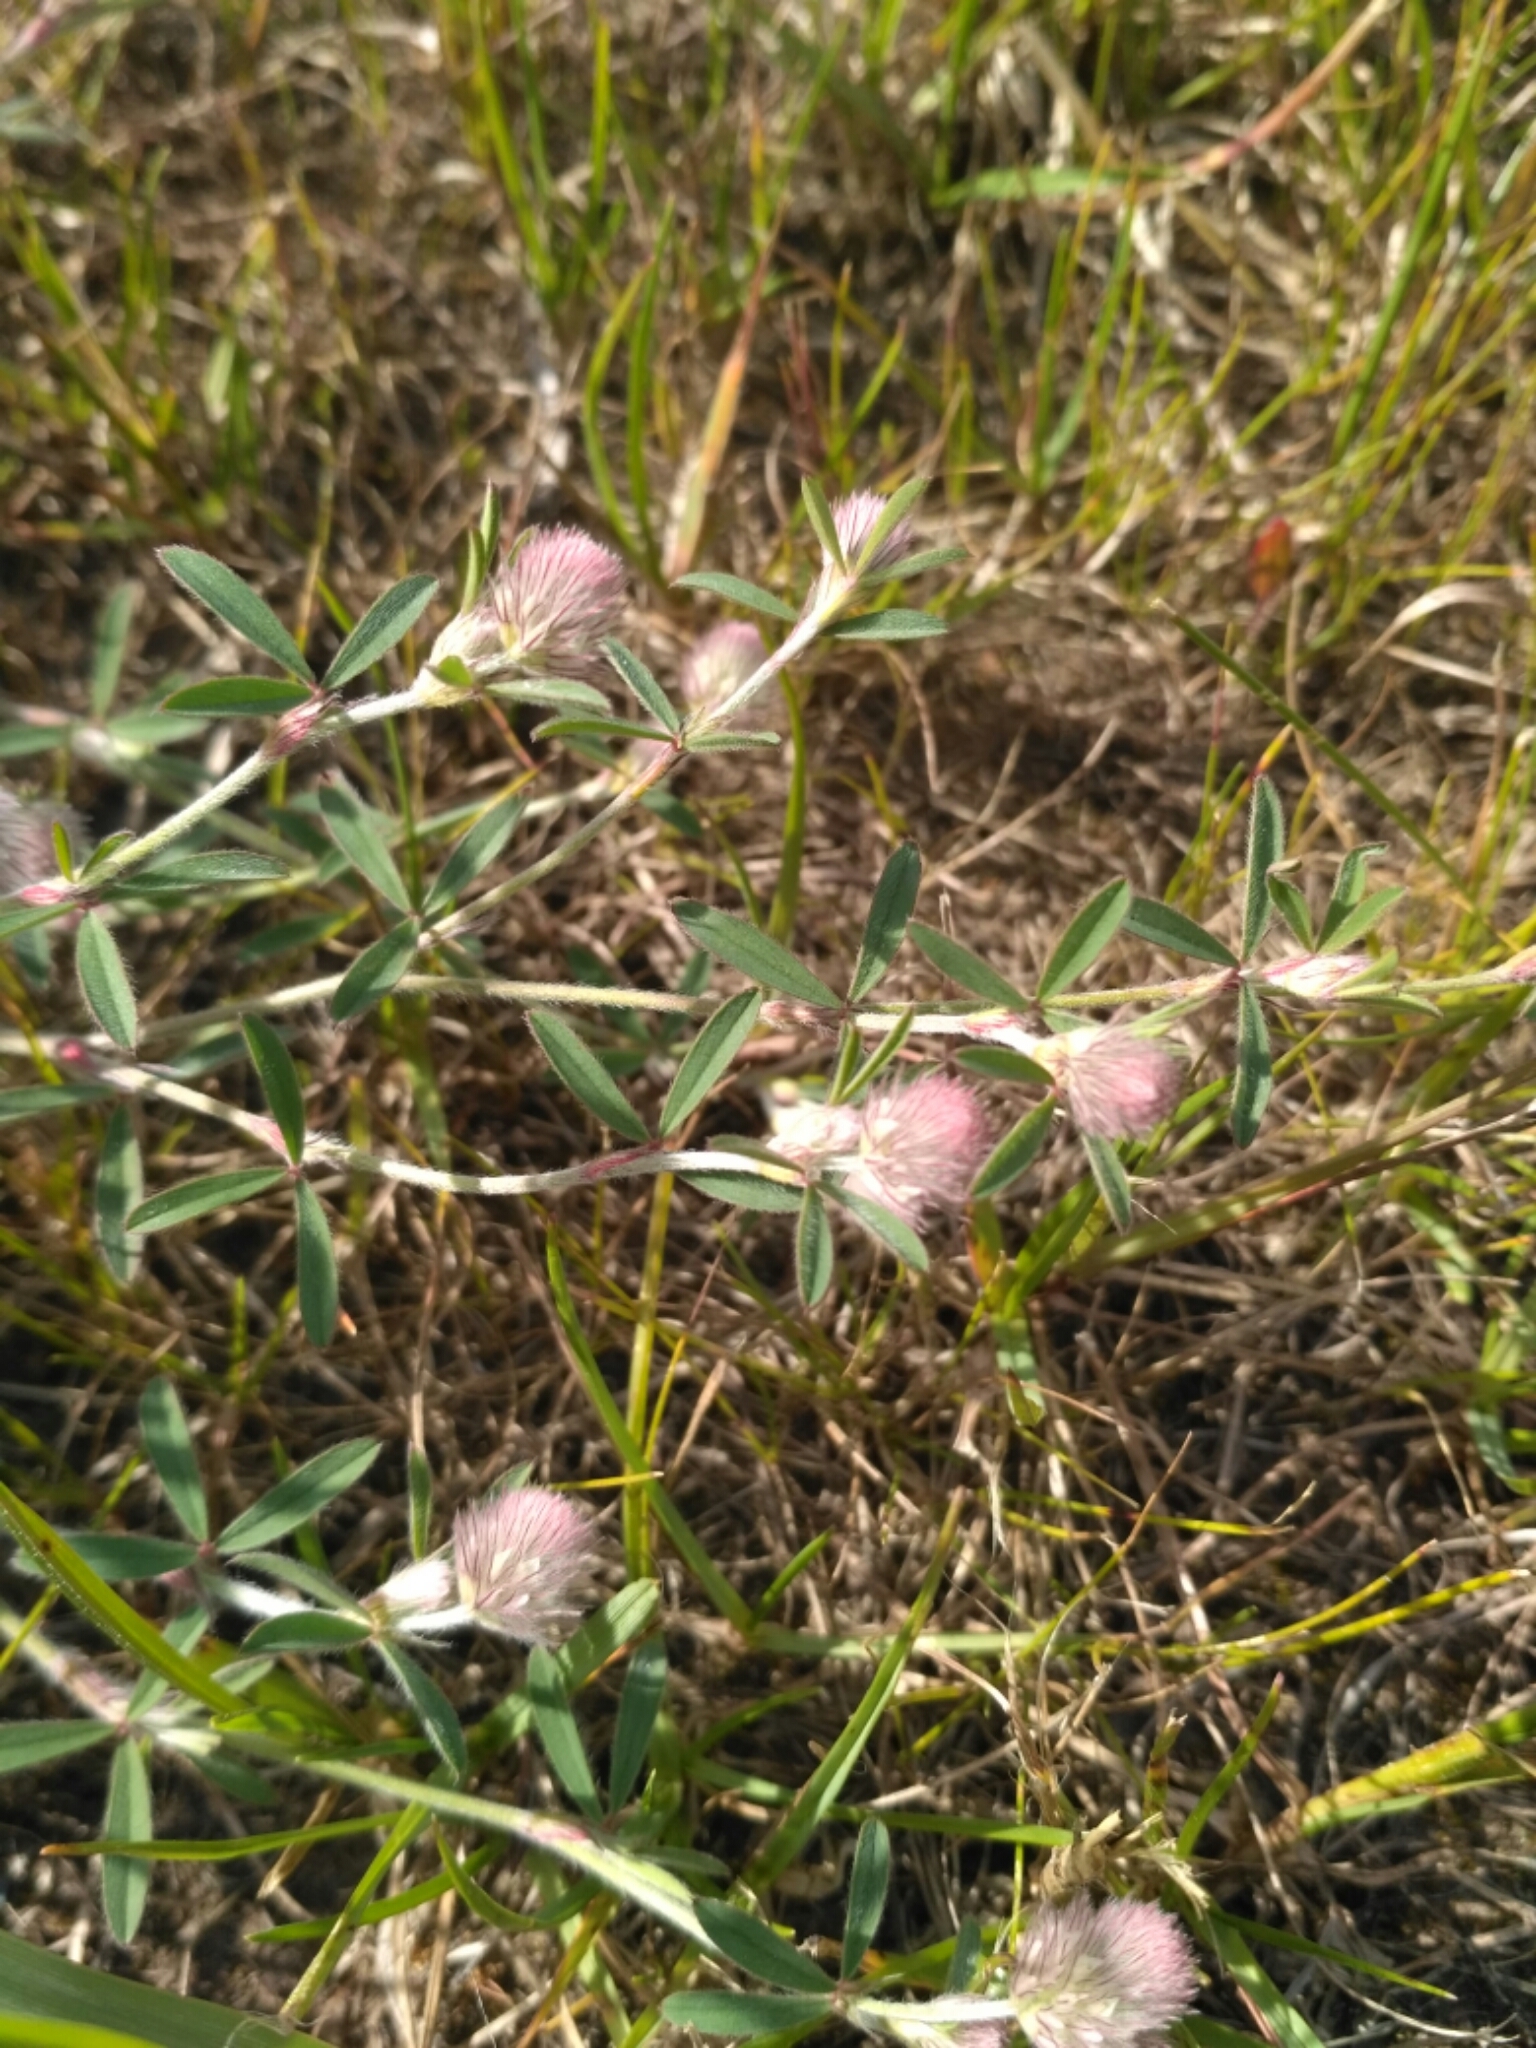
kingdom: Plantae
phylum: Tracheophyta
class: Magnoliopsida
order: Fabales
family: Fabaceae
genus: Trifolium
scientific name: Trifolium arvense
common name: Hare's-foot clover
